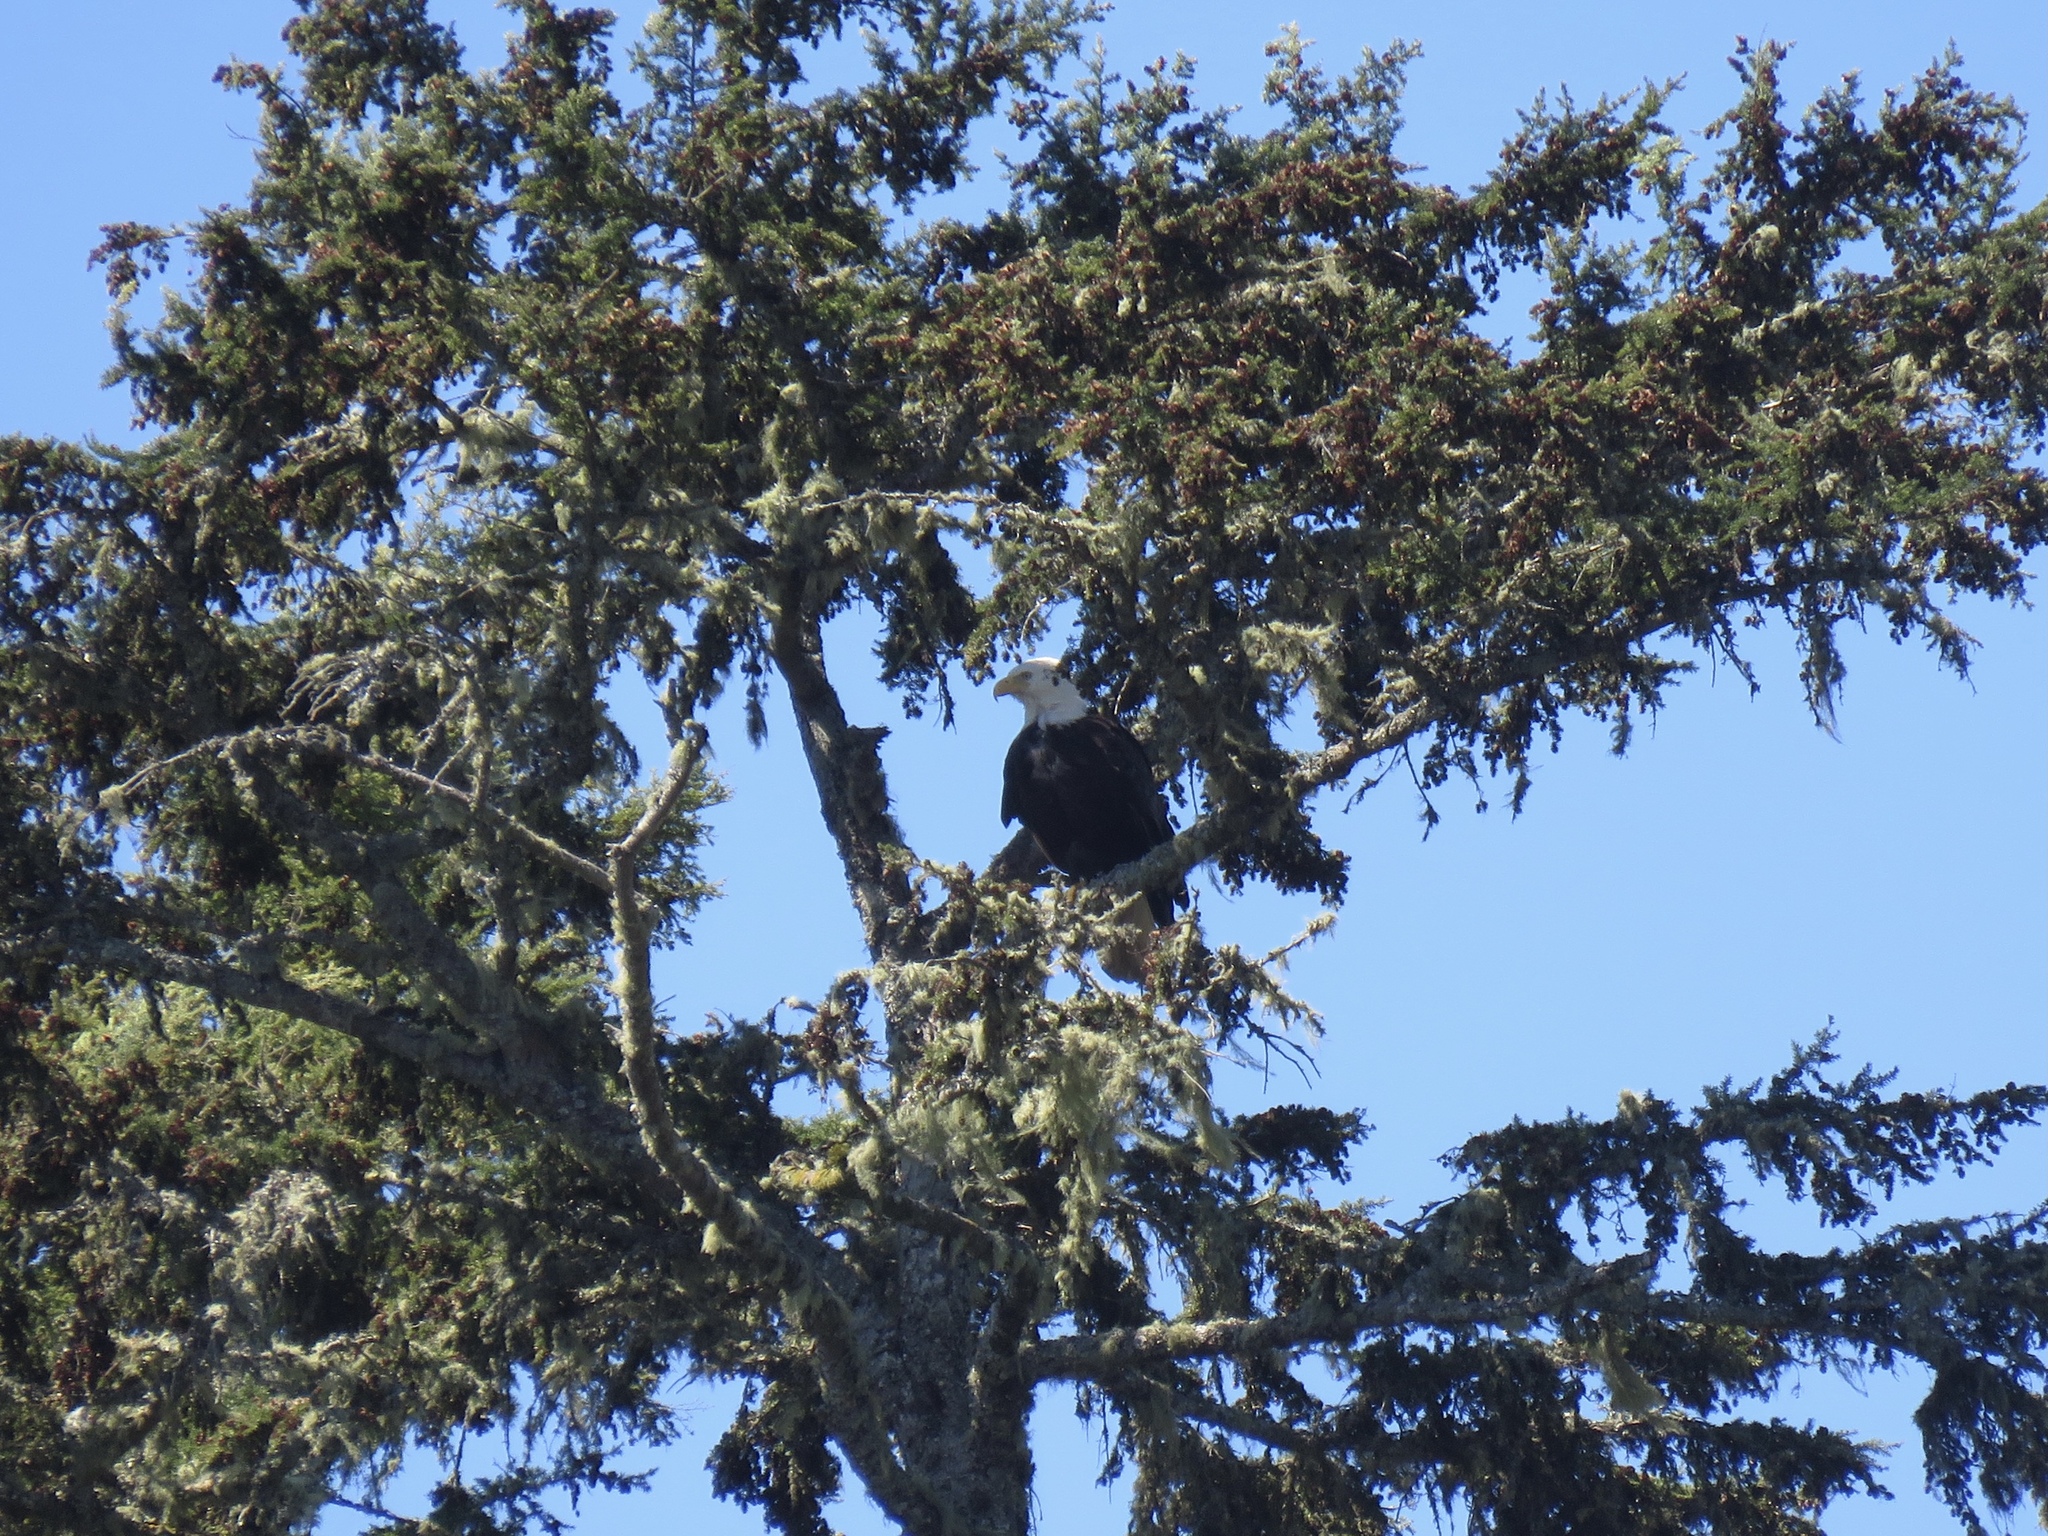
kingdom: Animalia
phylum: Chordata
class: Aves
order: Accipitriformes
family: Accipitridae
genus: Haliaeetus
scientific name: Haliaeetus leucocephalus
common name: Bald eagle
